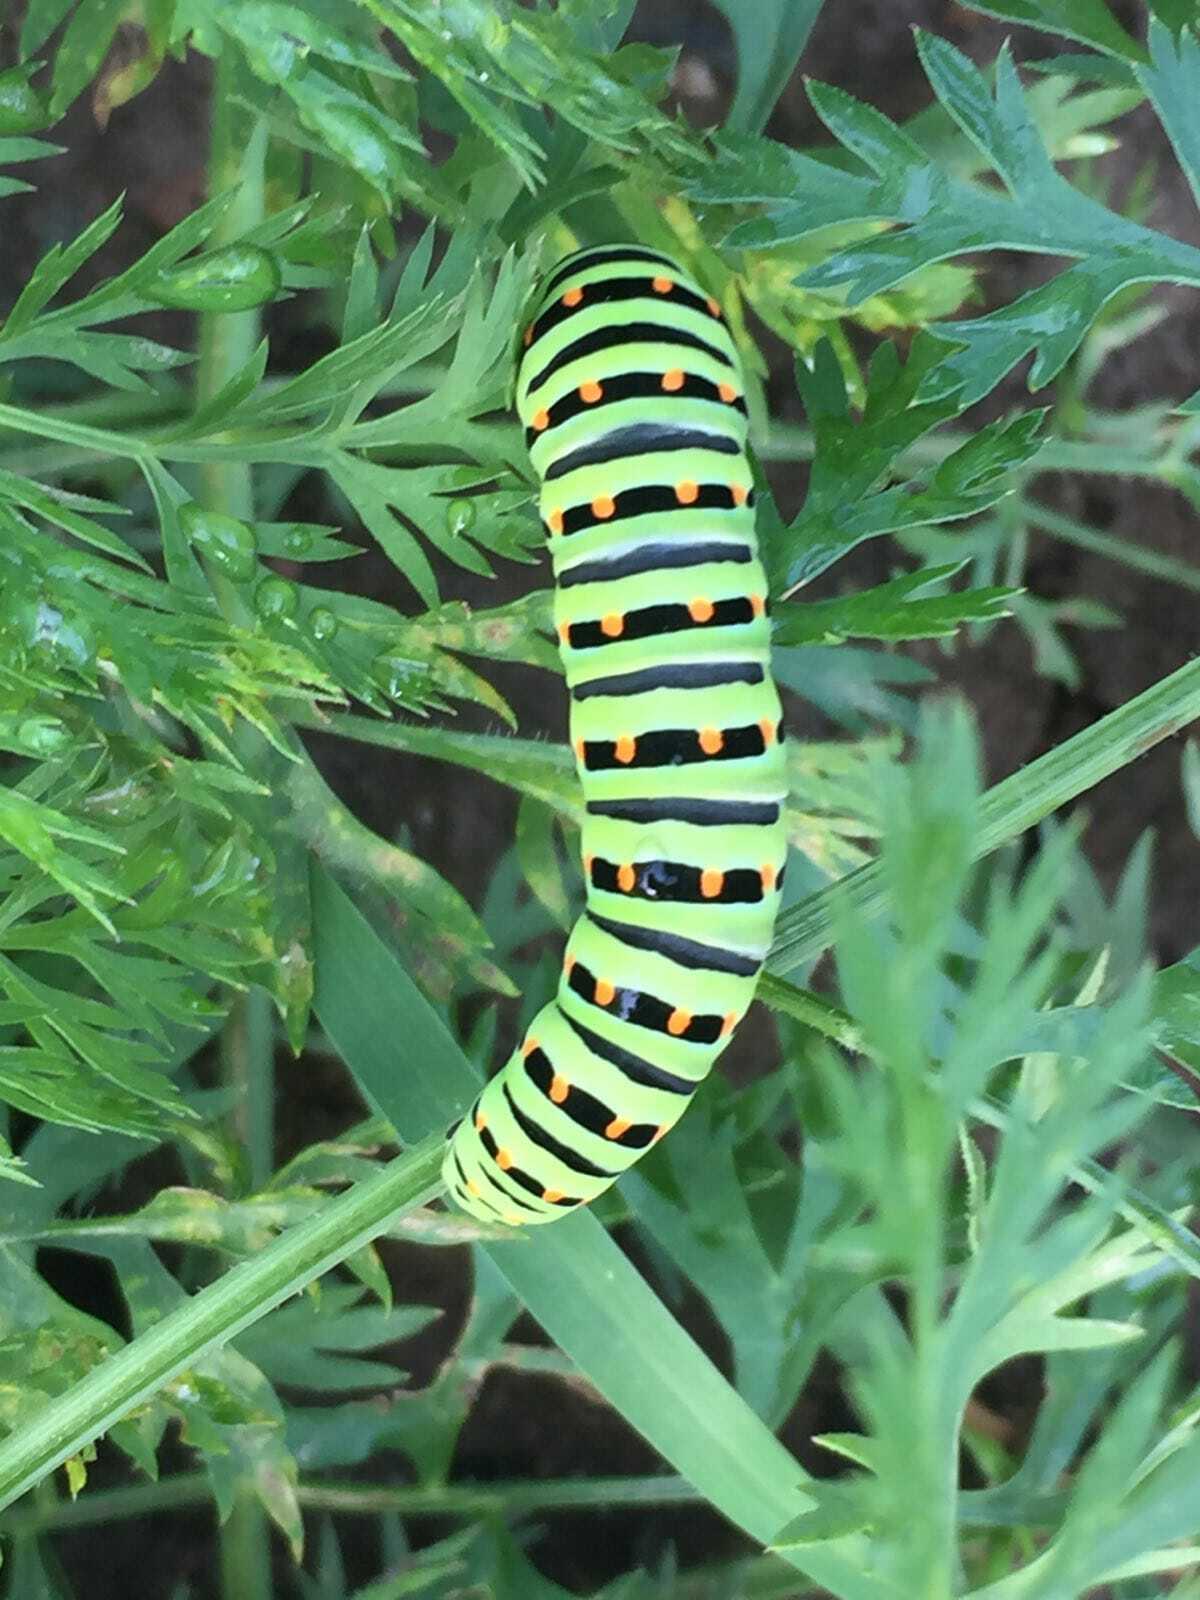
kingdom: Animalia
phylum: Arthropoda
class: Insecta
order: Lepidoptera
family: Papilionidae
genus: Papilio
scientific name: Papilio machaon
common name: Swallowtail
